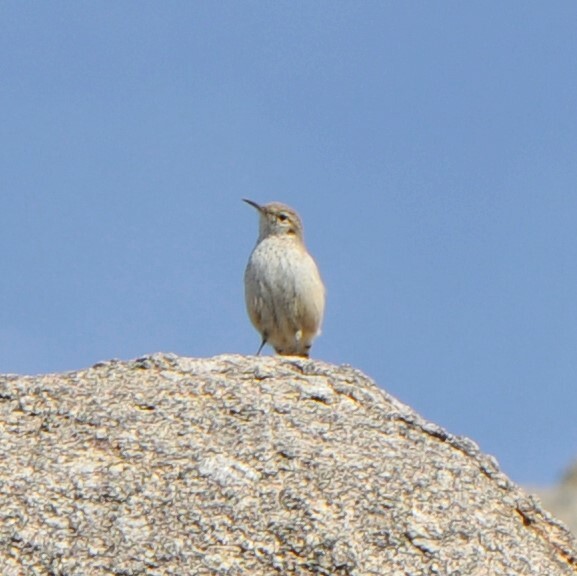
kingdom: Animalia
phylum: Chordata
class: Aves
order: Passeriformes
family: Troglodytidae
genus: Salpinctes
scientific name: Salpinctes obsoletus
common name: Rock wren
